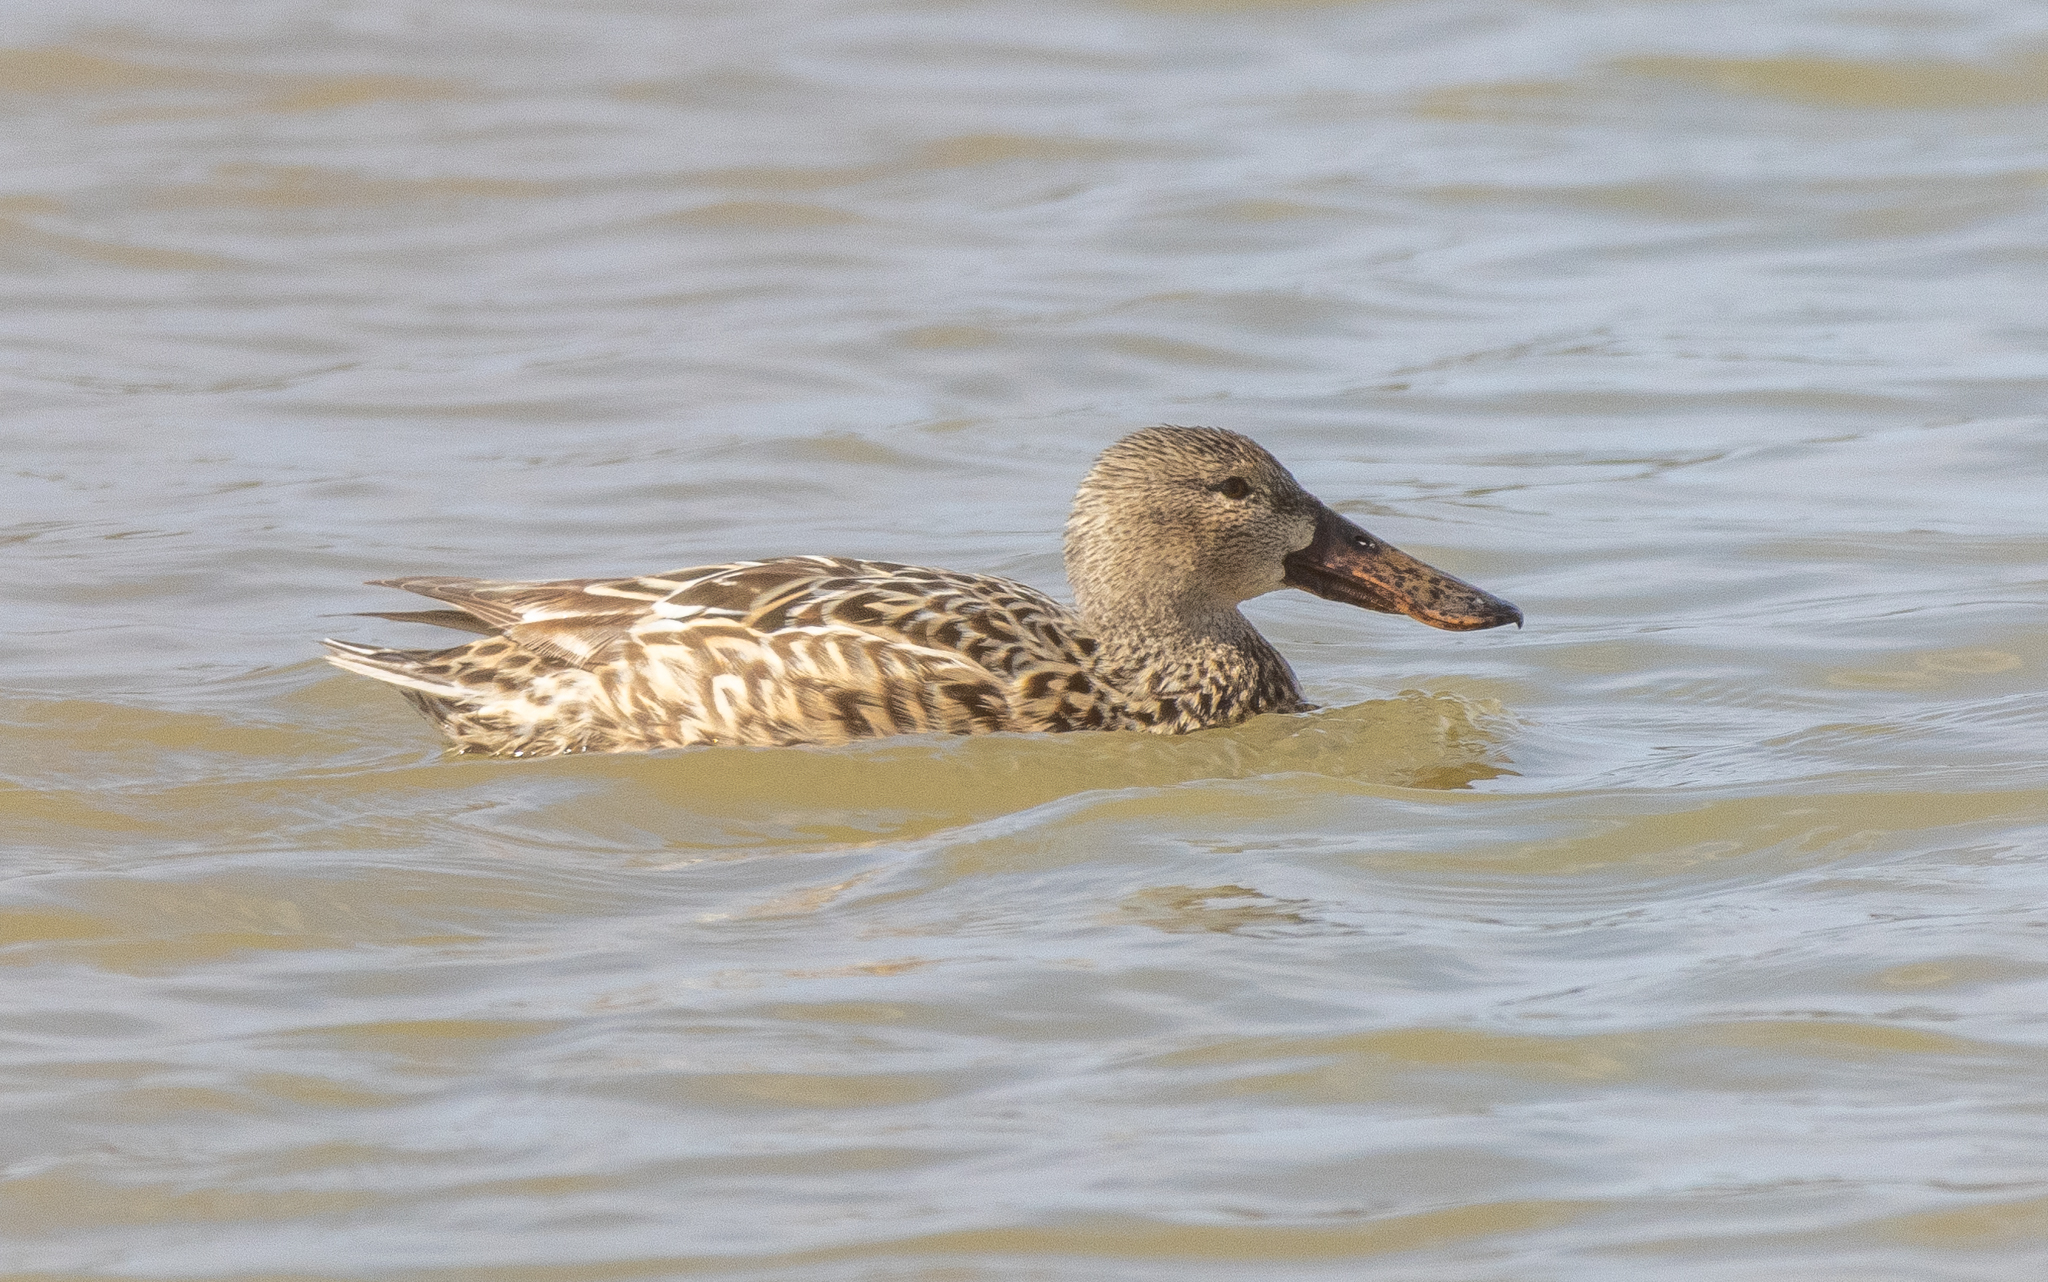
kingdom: Animalia
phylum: Chordata
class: Aves
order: Anseriformes
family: Anatidae
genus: Spatula
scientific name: Spatula clypeata
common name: Northern shoveler
